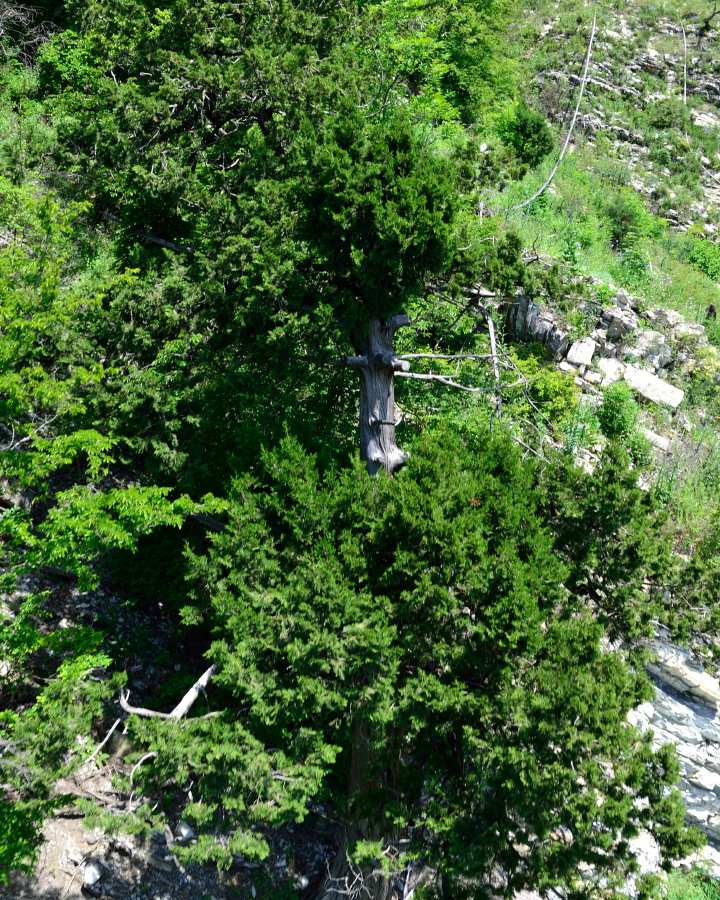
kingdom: Plantae
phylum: Tracheophyta
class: Pinopsida
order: Pinales
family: Cupressaceae
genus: Juniperus
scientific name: Juniperus excelsa
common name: Crimean juniper
